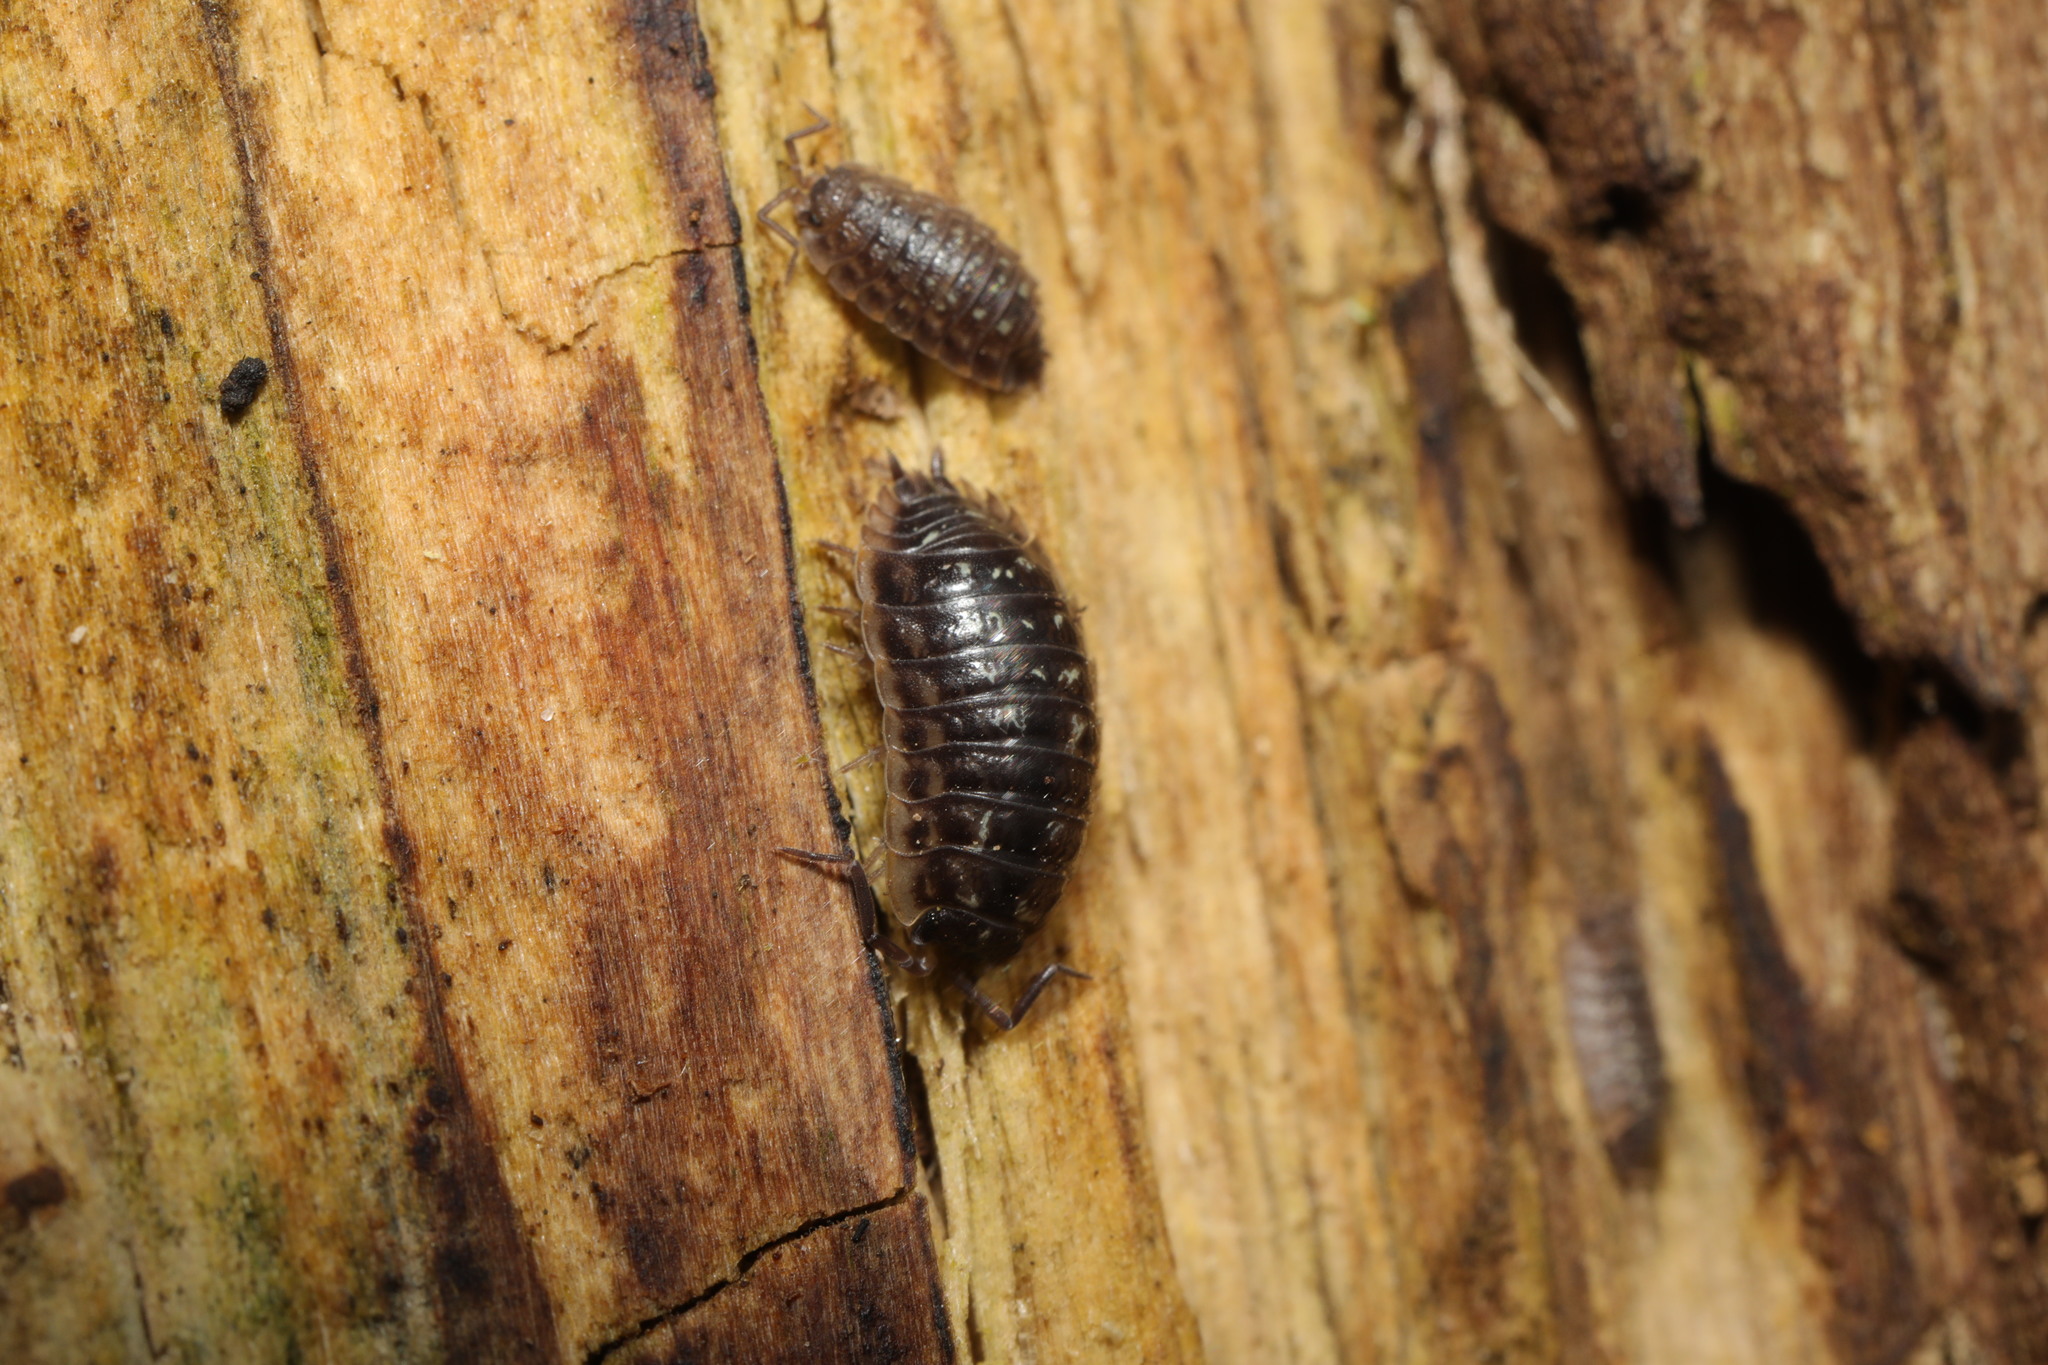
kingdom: Animalia
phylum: Arthropoda
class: Malacostraca
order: Isopoda
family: Oniscidae
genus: Oniscus
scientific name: Oniscus asellus
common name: Common shiny woodlouse
